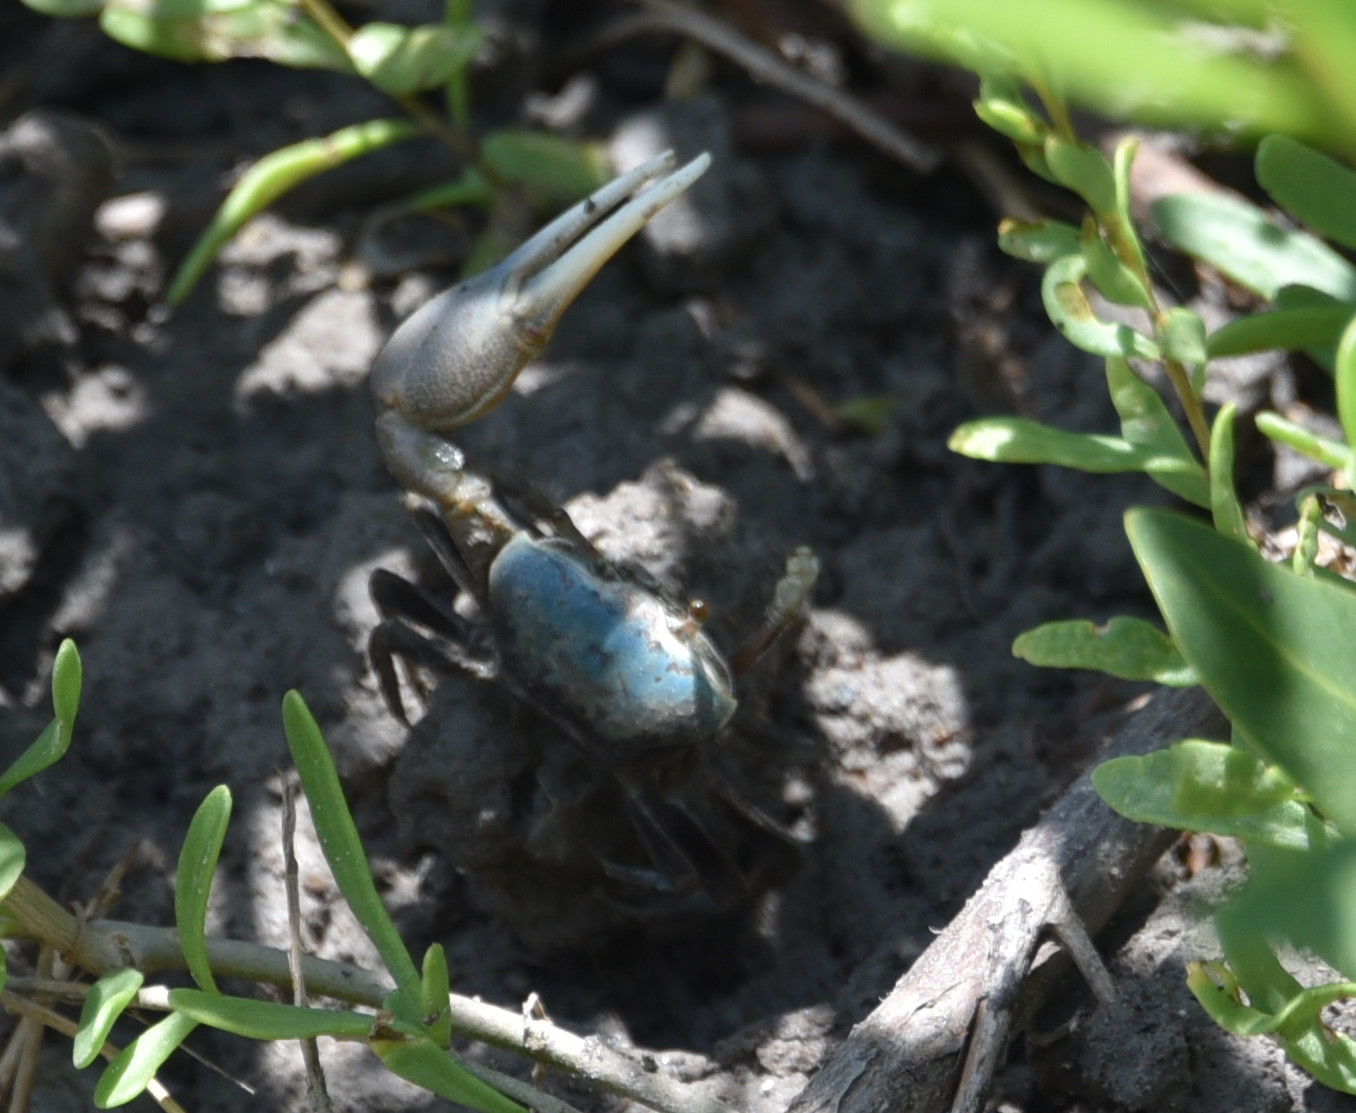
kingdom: Animalia
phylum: Arthropoda
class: Malacostraca
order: Decapoda
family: Ocypodidae
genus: Minuca
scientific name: Minuca longisignalis
